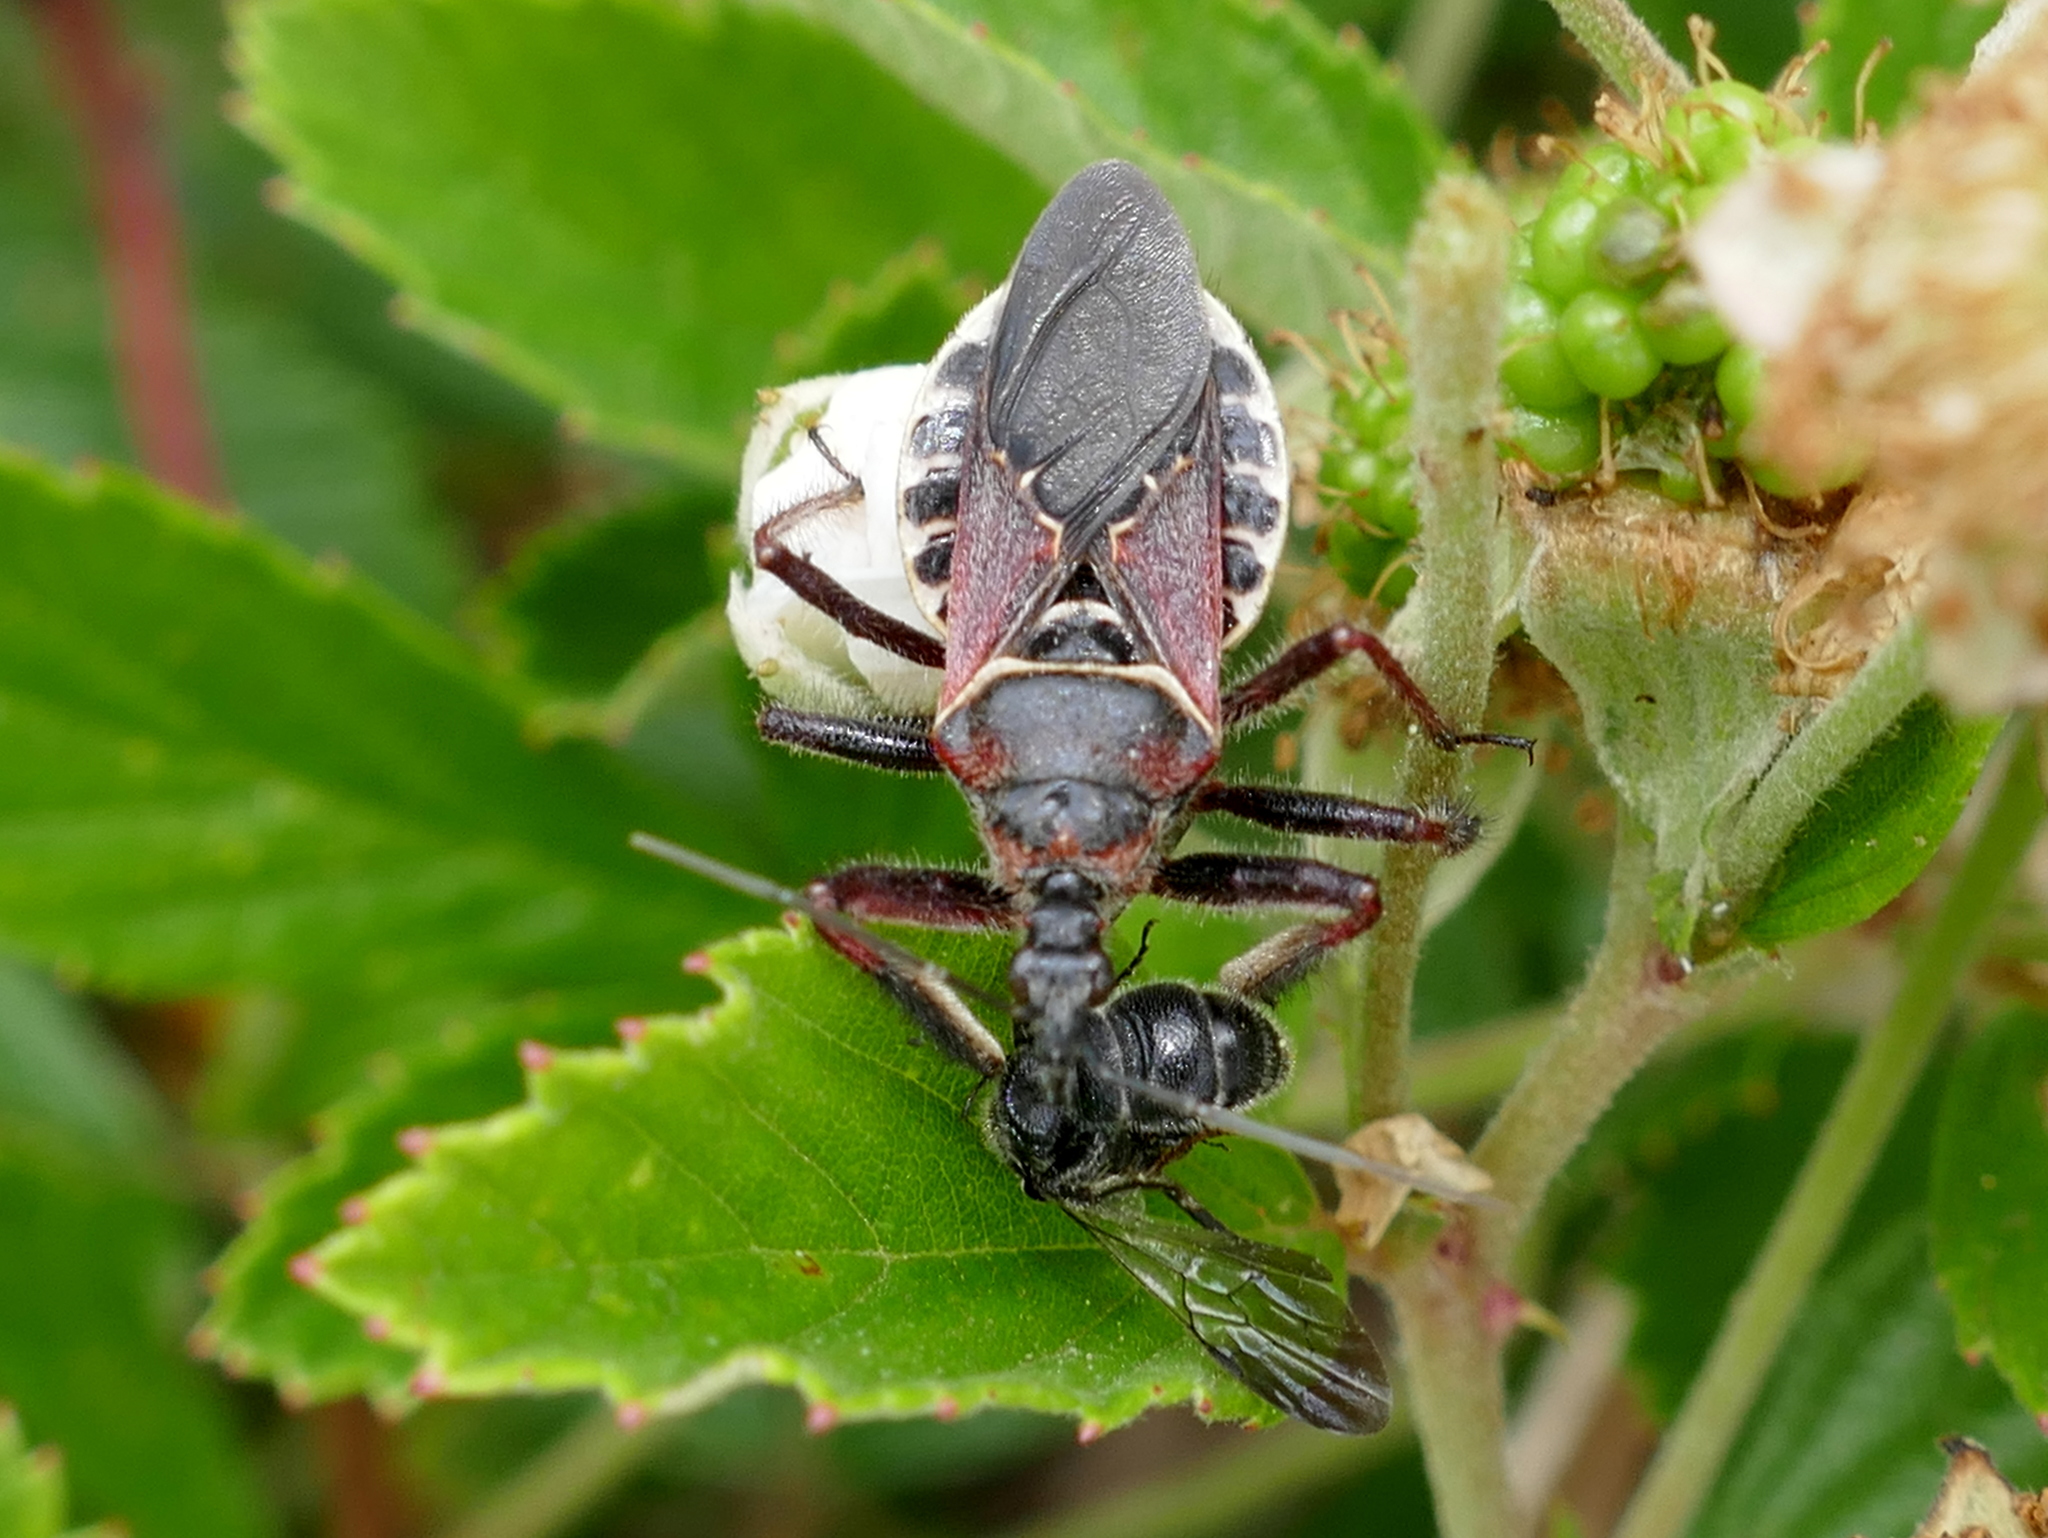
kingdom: Animalia
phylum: Arthropoda
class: Insecta
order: Hemiptera
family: Reduviidae
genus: Apiomerus
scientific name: Apiomerus floridensis
